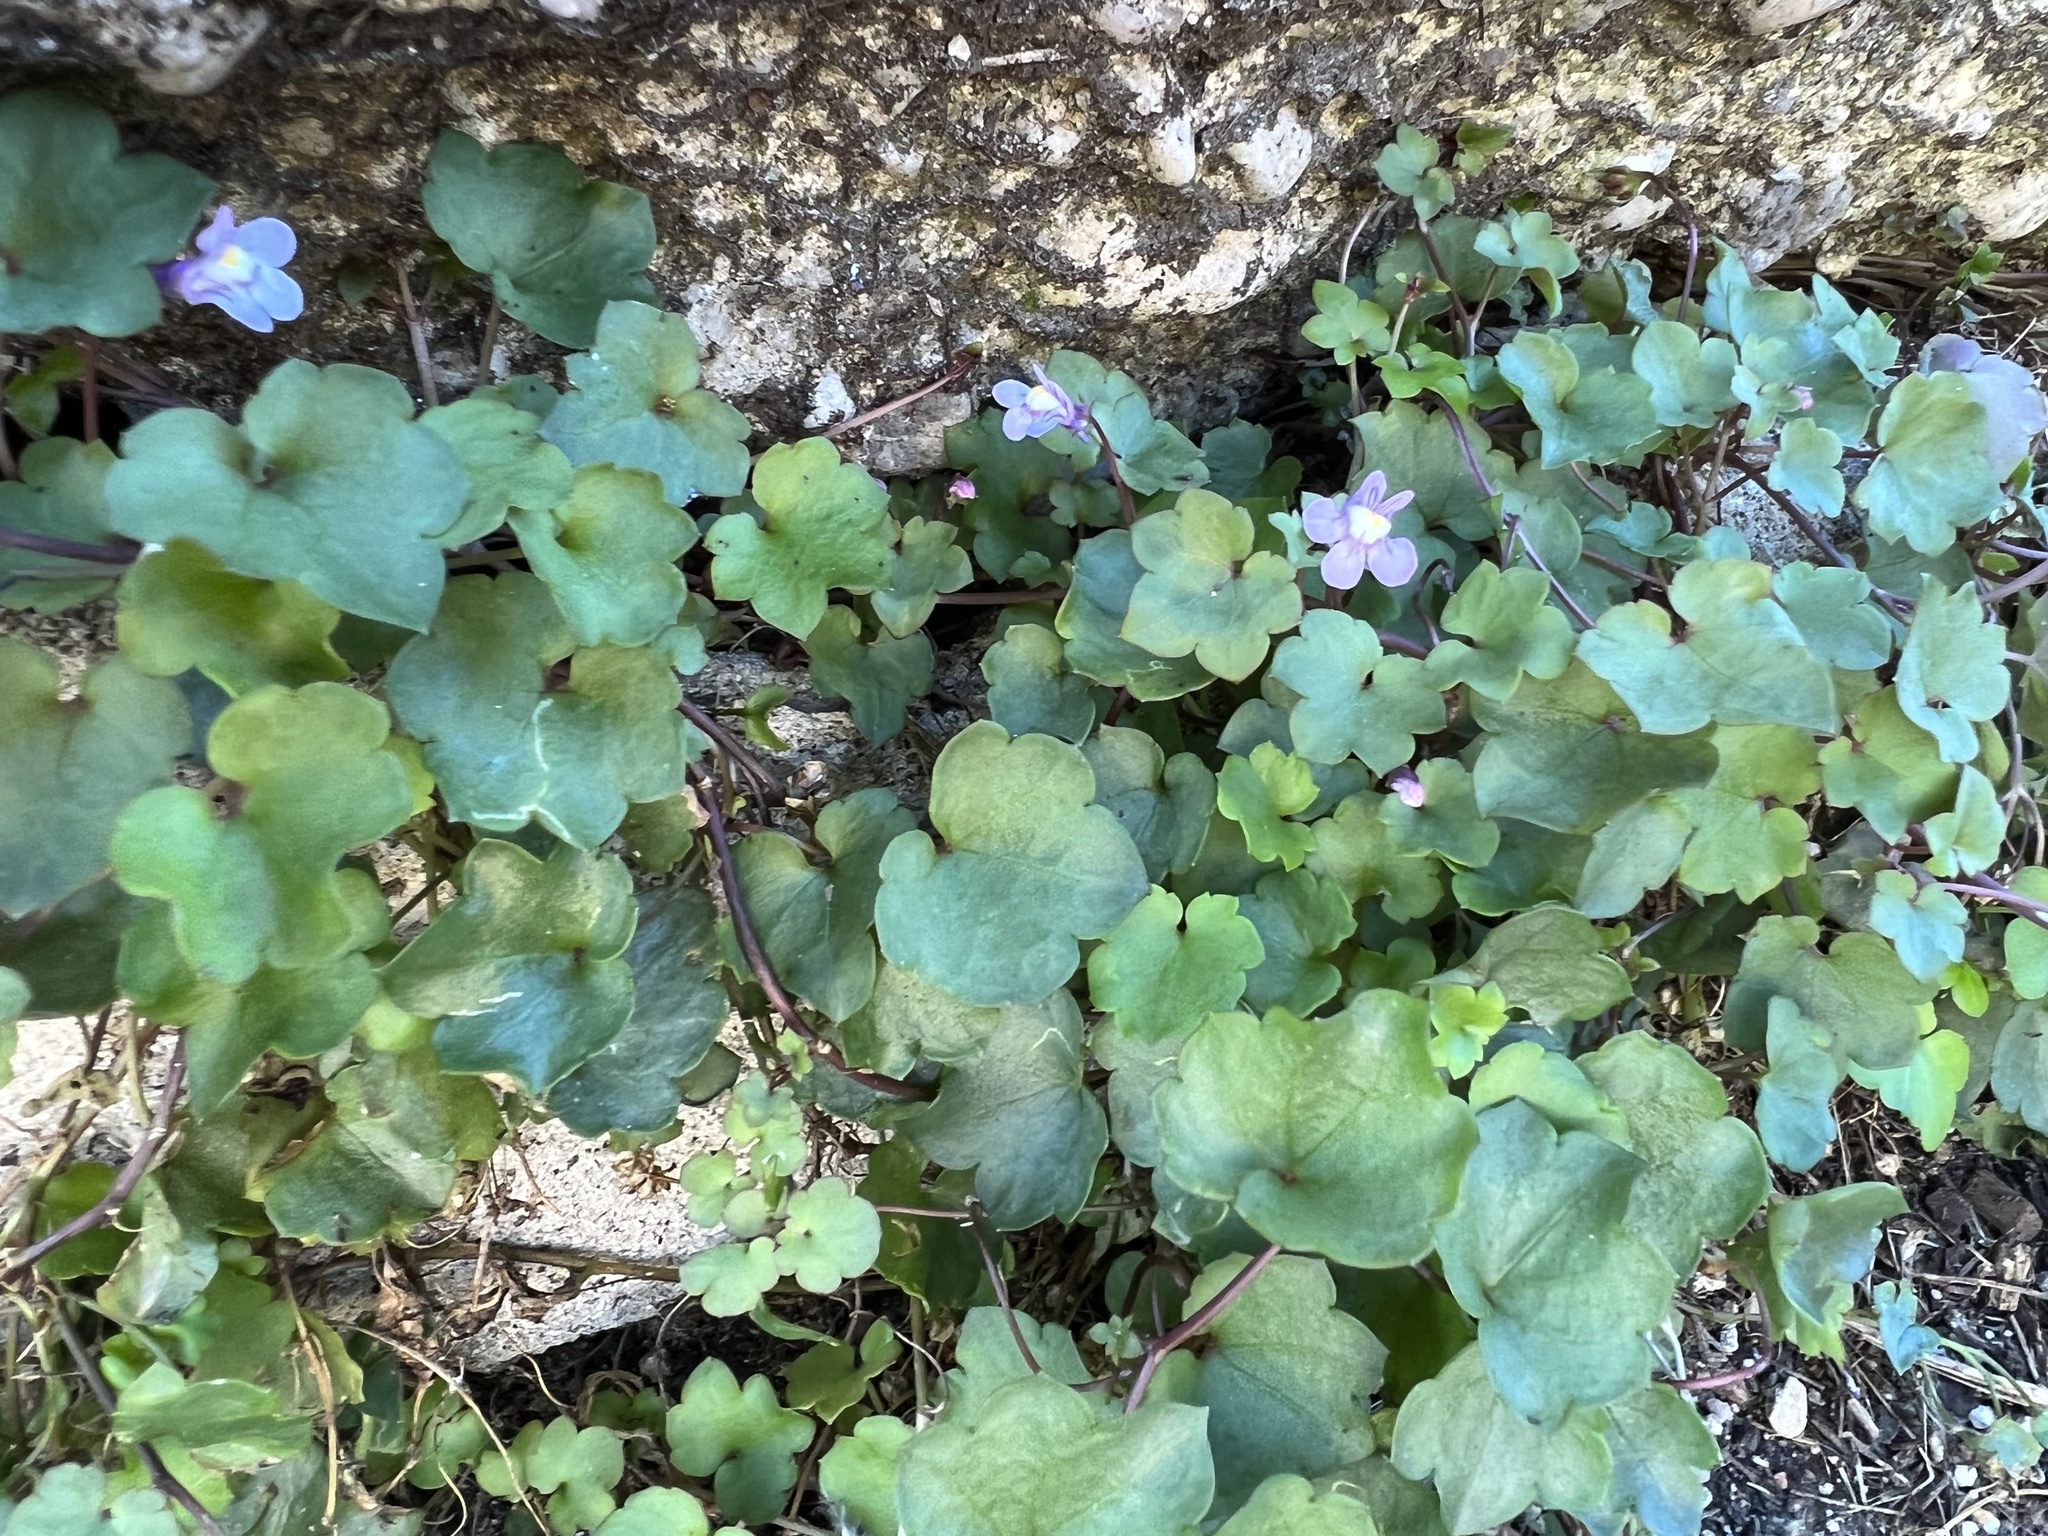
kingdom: Plantae
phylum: Tracheophyta
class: Magnoliopsida
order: Lamiales
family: Plantaginaceae
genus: Cymbalaria
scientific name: Cymbalaria muralis
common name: Ivy-leaved toadflax
